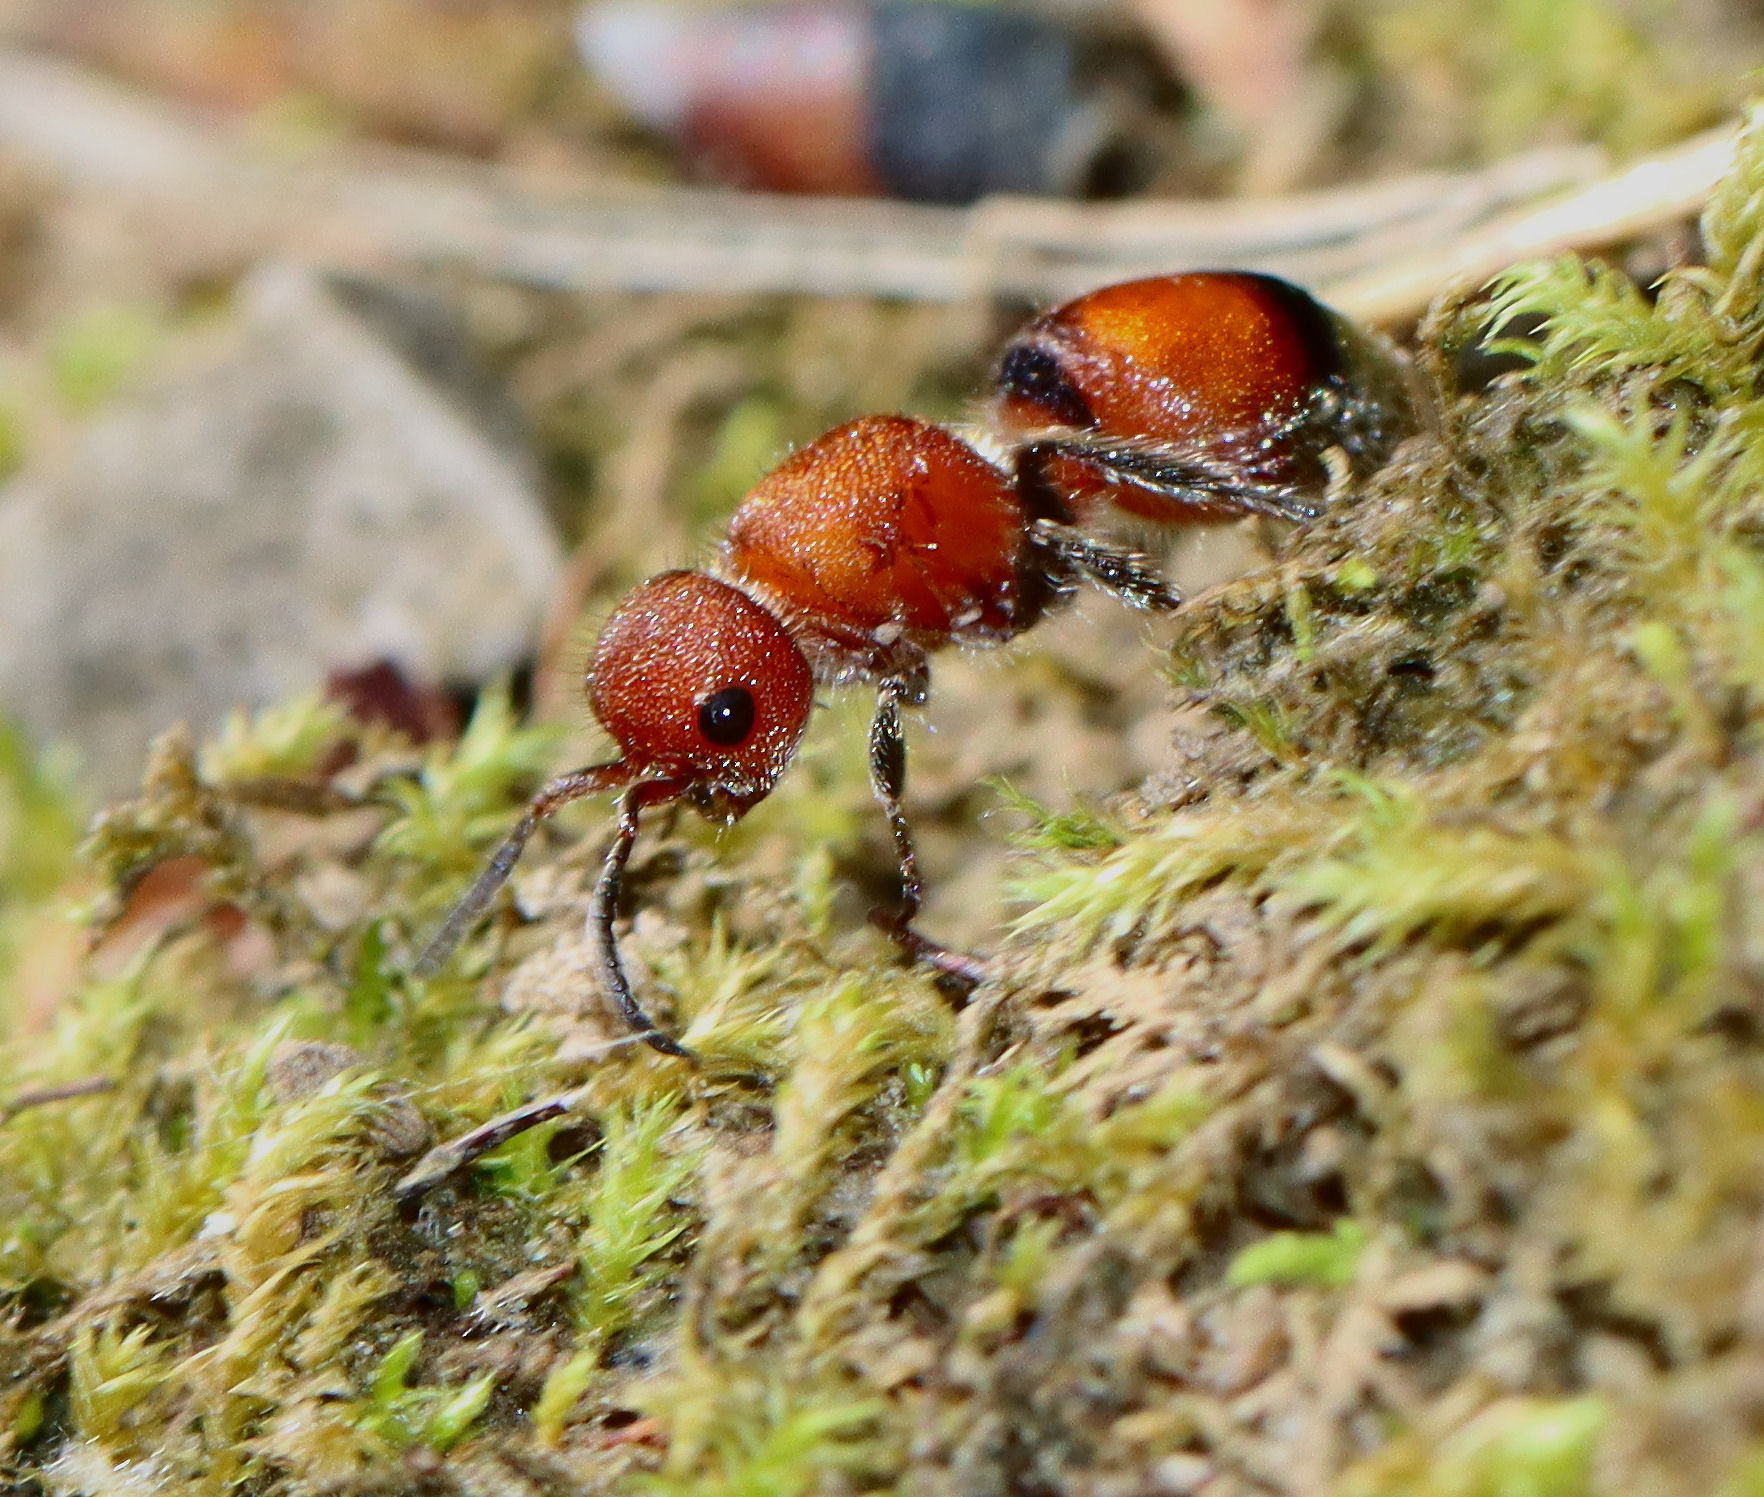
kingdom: Animalia
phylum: Arthropoda
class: Insecta
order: Hymenoptera
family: Mutillidae
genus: Pseudomethoca
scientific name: Pseudomethoca
